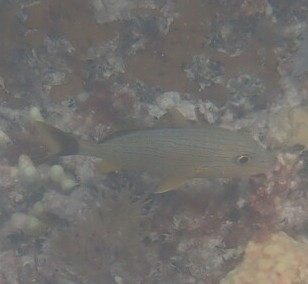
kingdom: Animalia
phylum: Chordata
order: Perciformes
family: Haemulidae
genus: Haemulon
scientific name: Haemulon sciurus
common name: Bluestriped grunt
